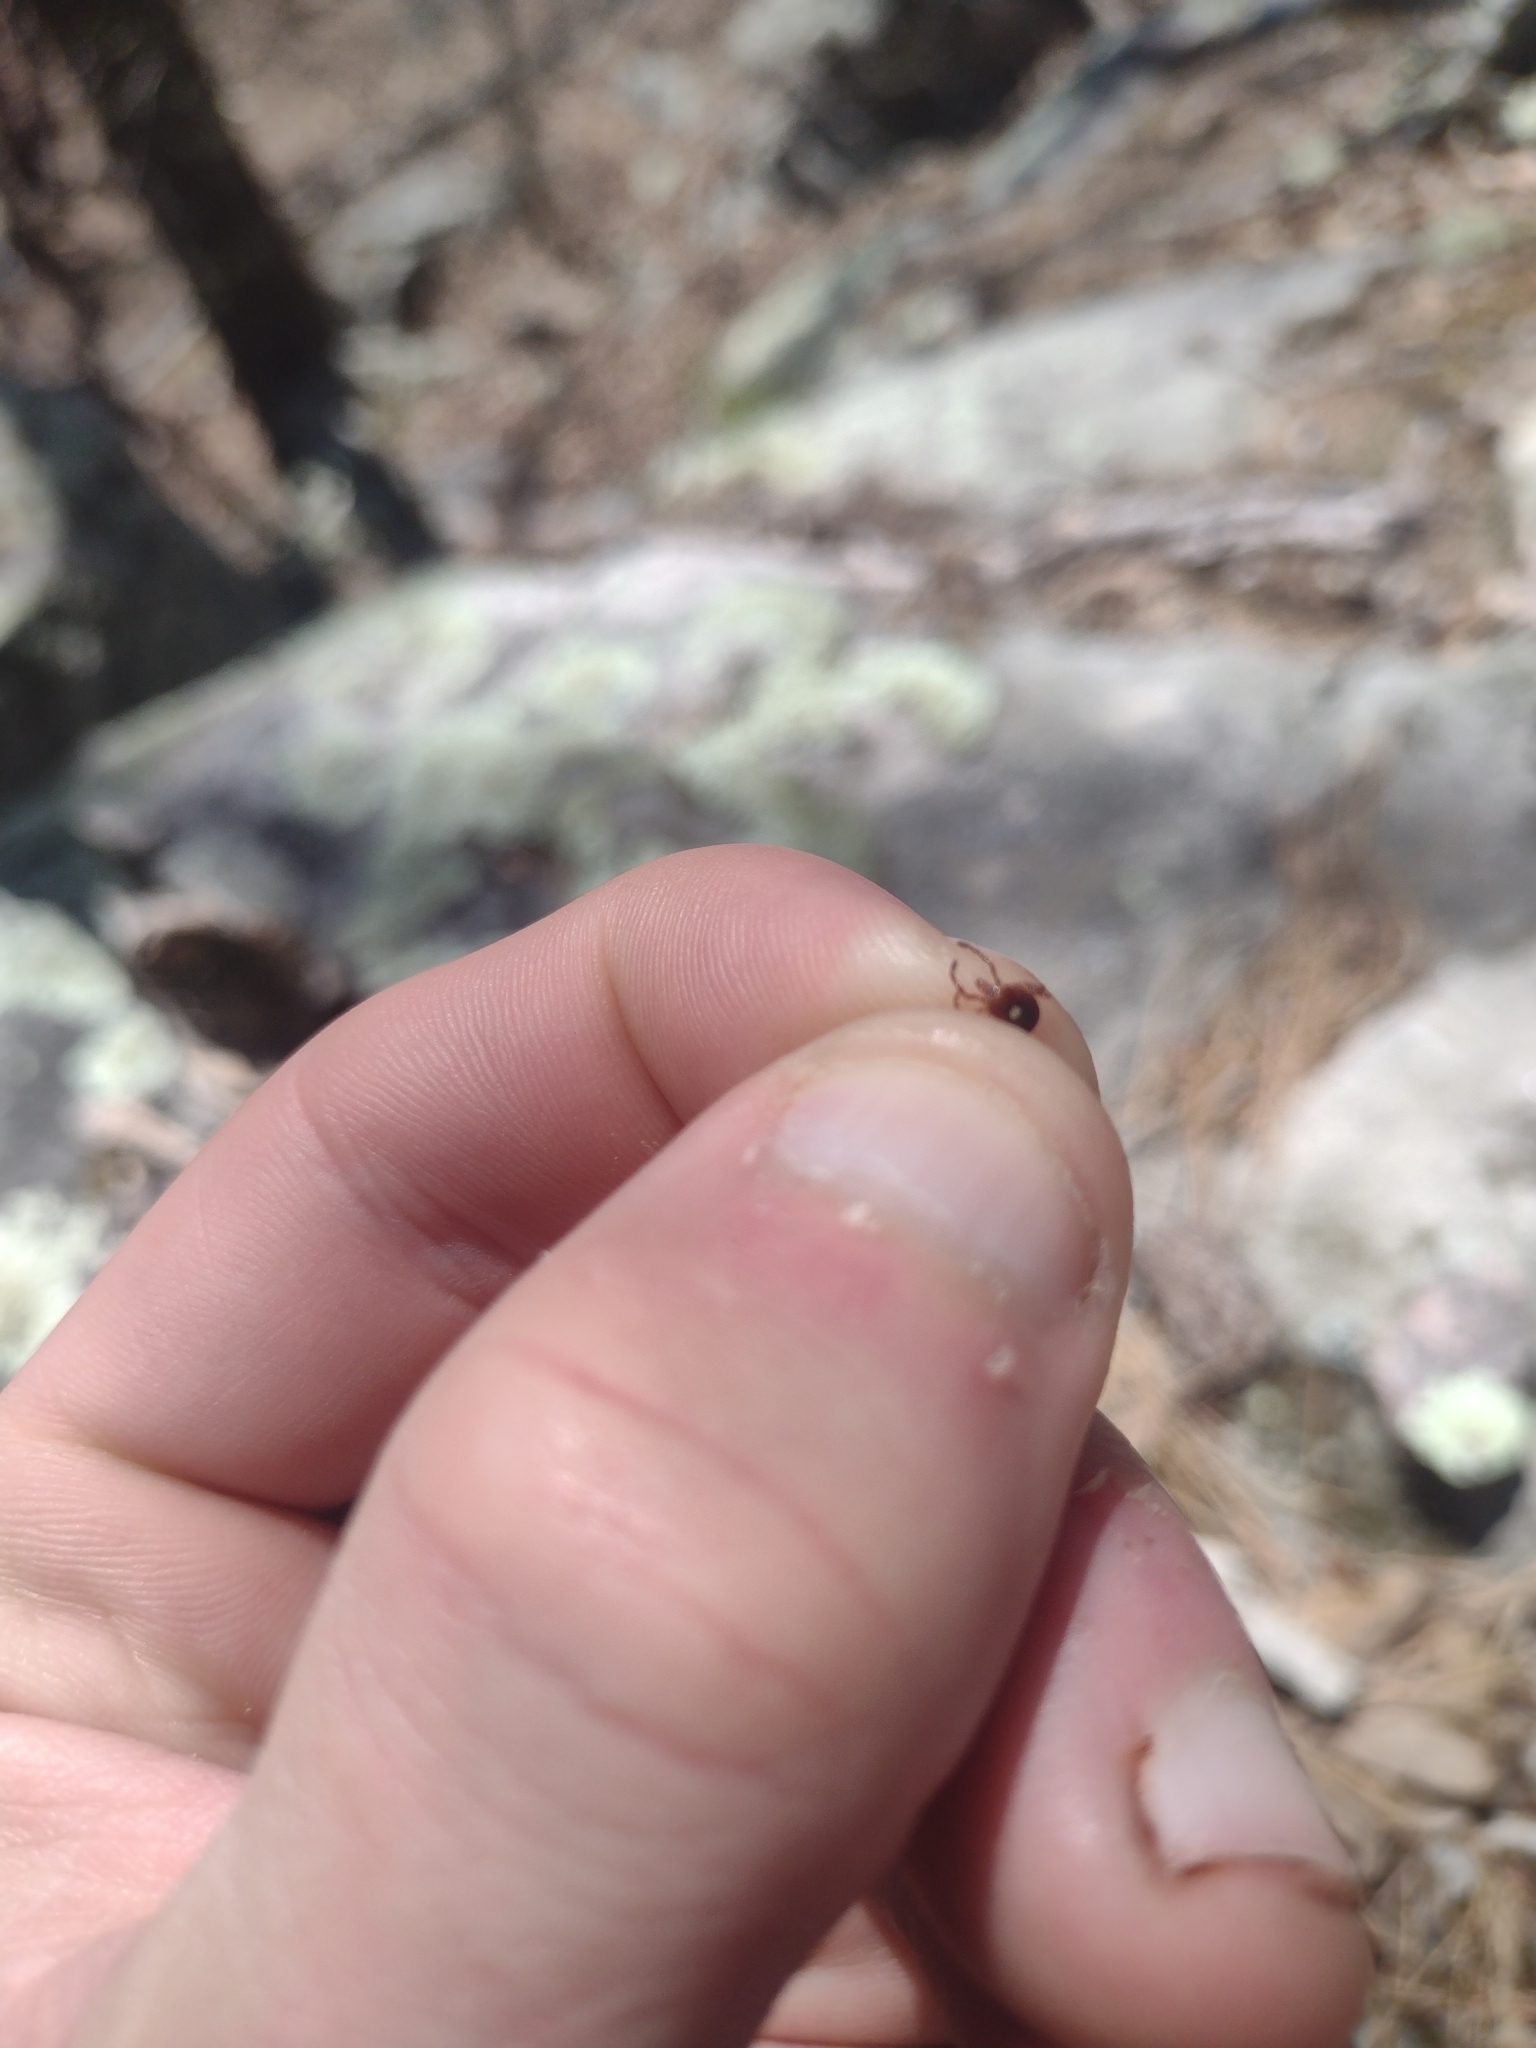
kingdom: Animalia
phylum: Arthropoda
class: Arachnida
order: Ixodida
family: Ixodidae
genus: Amblyomma
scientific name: Amblyomma americanum
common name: Lone star tick
